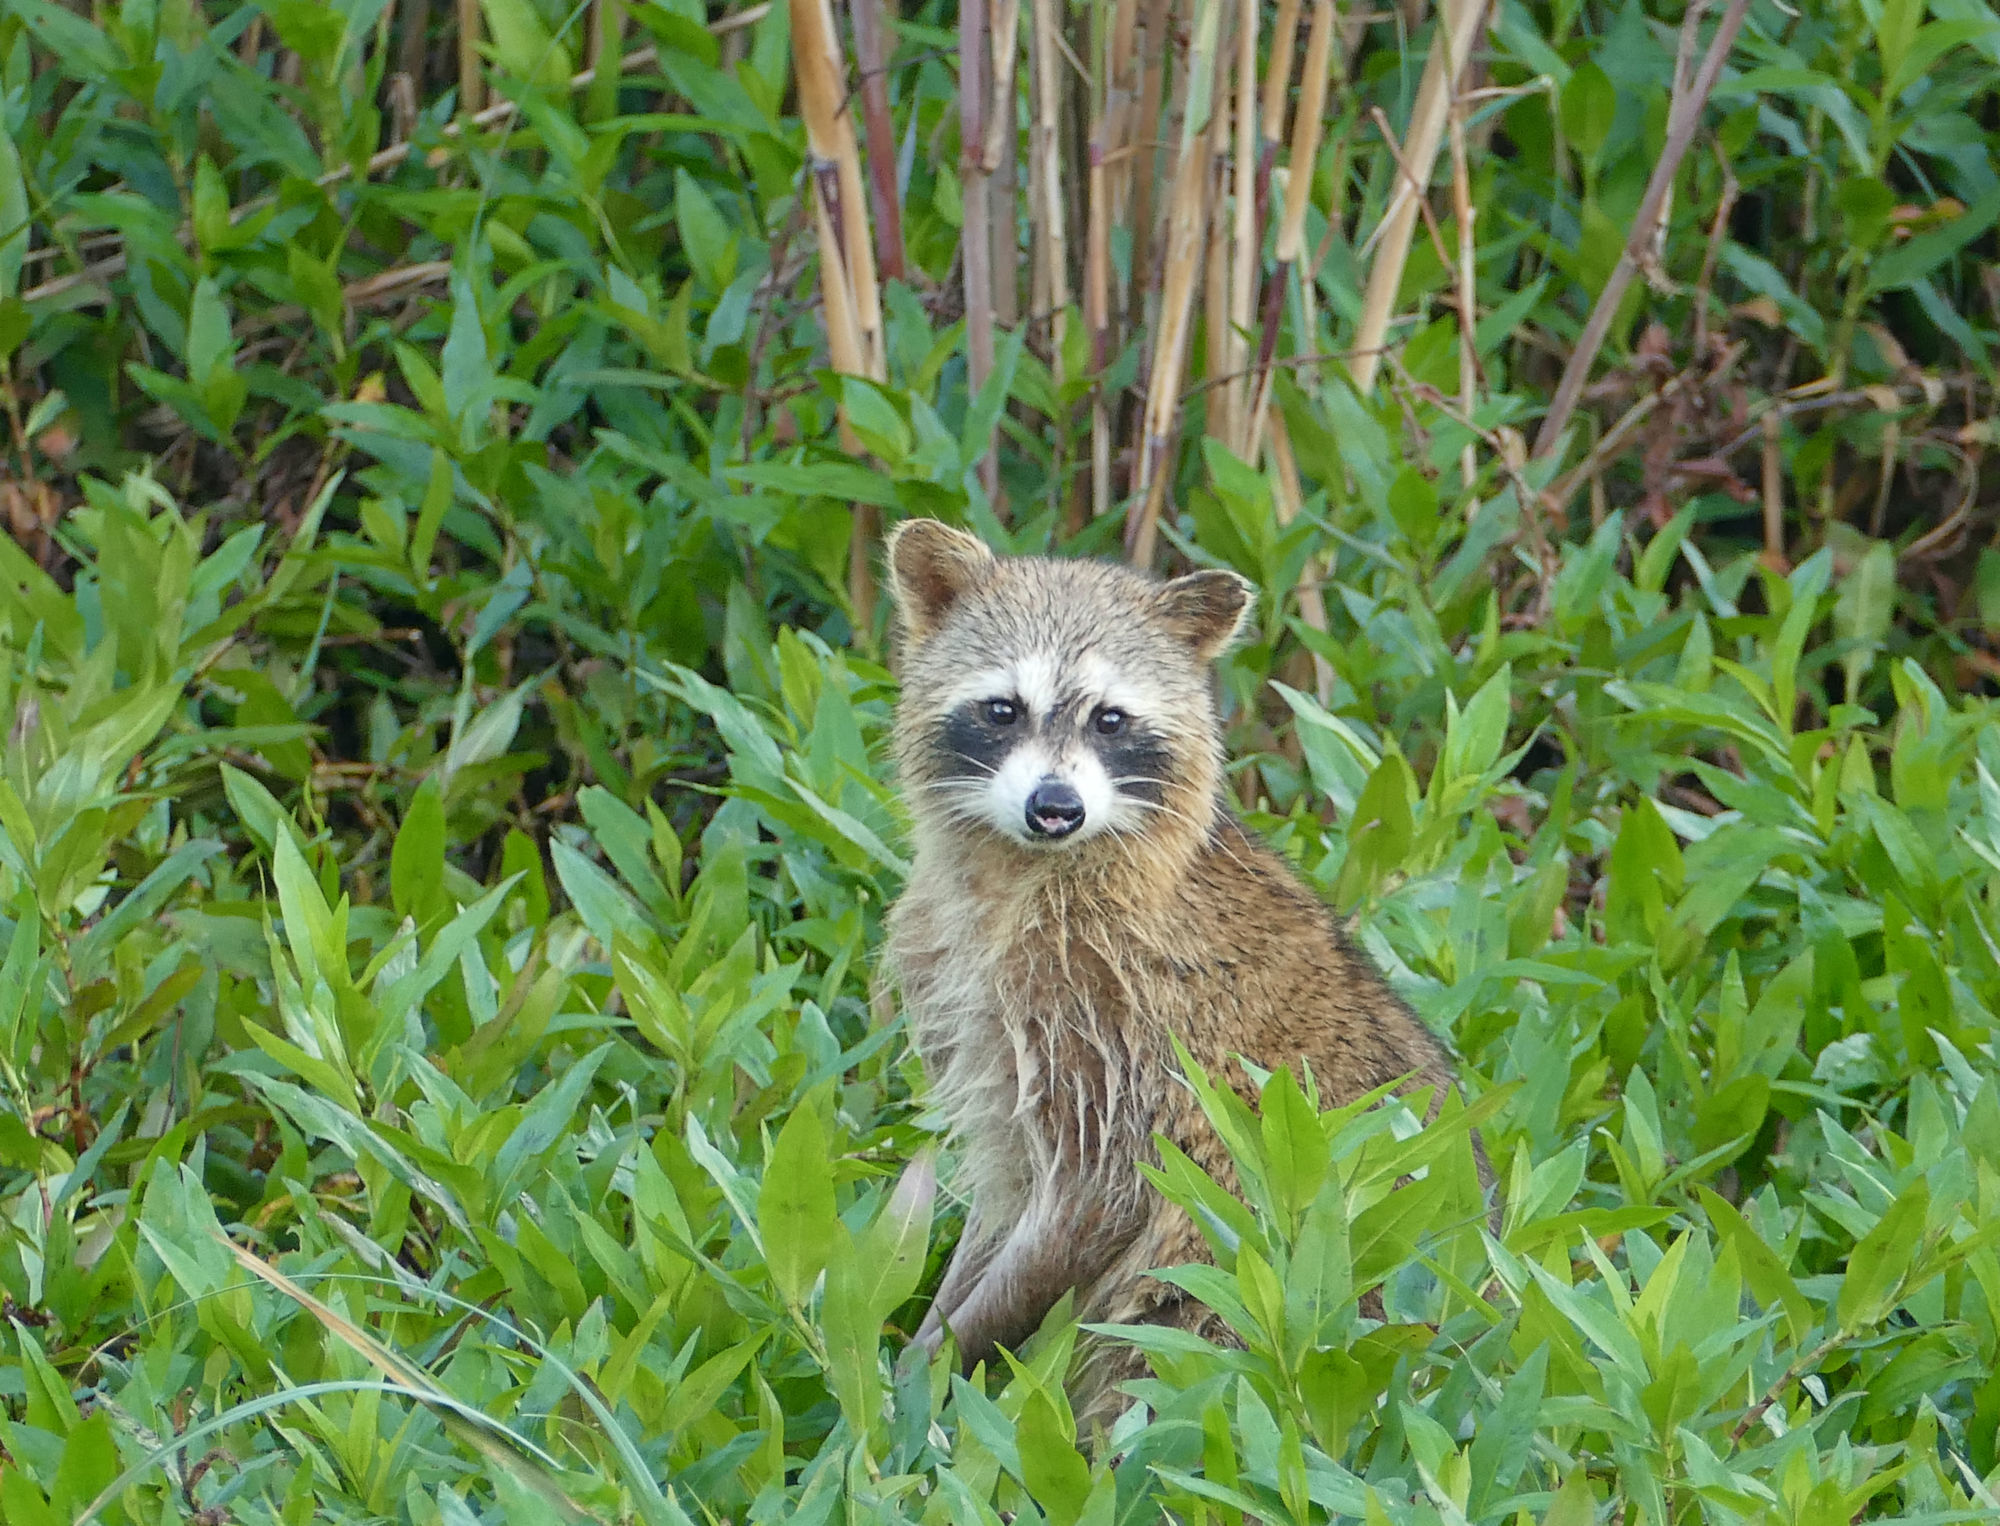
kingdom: Animalia
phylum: Chordata
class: Mammalia
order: Carnivora
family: Procyonidae
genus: Procyon
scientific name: Procyon lotor
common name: Raccoon
